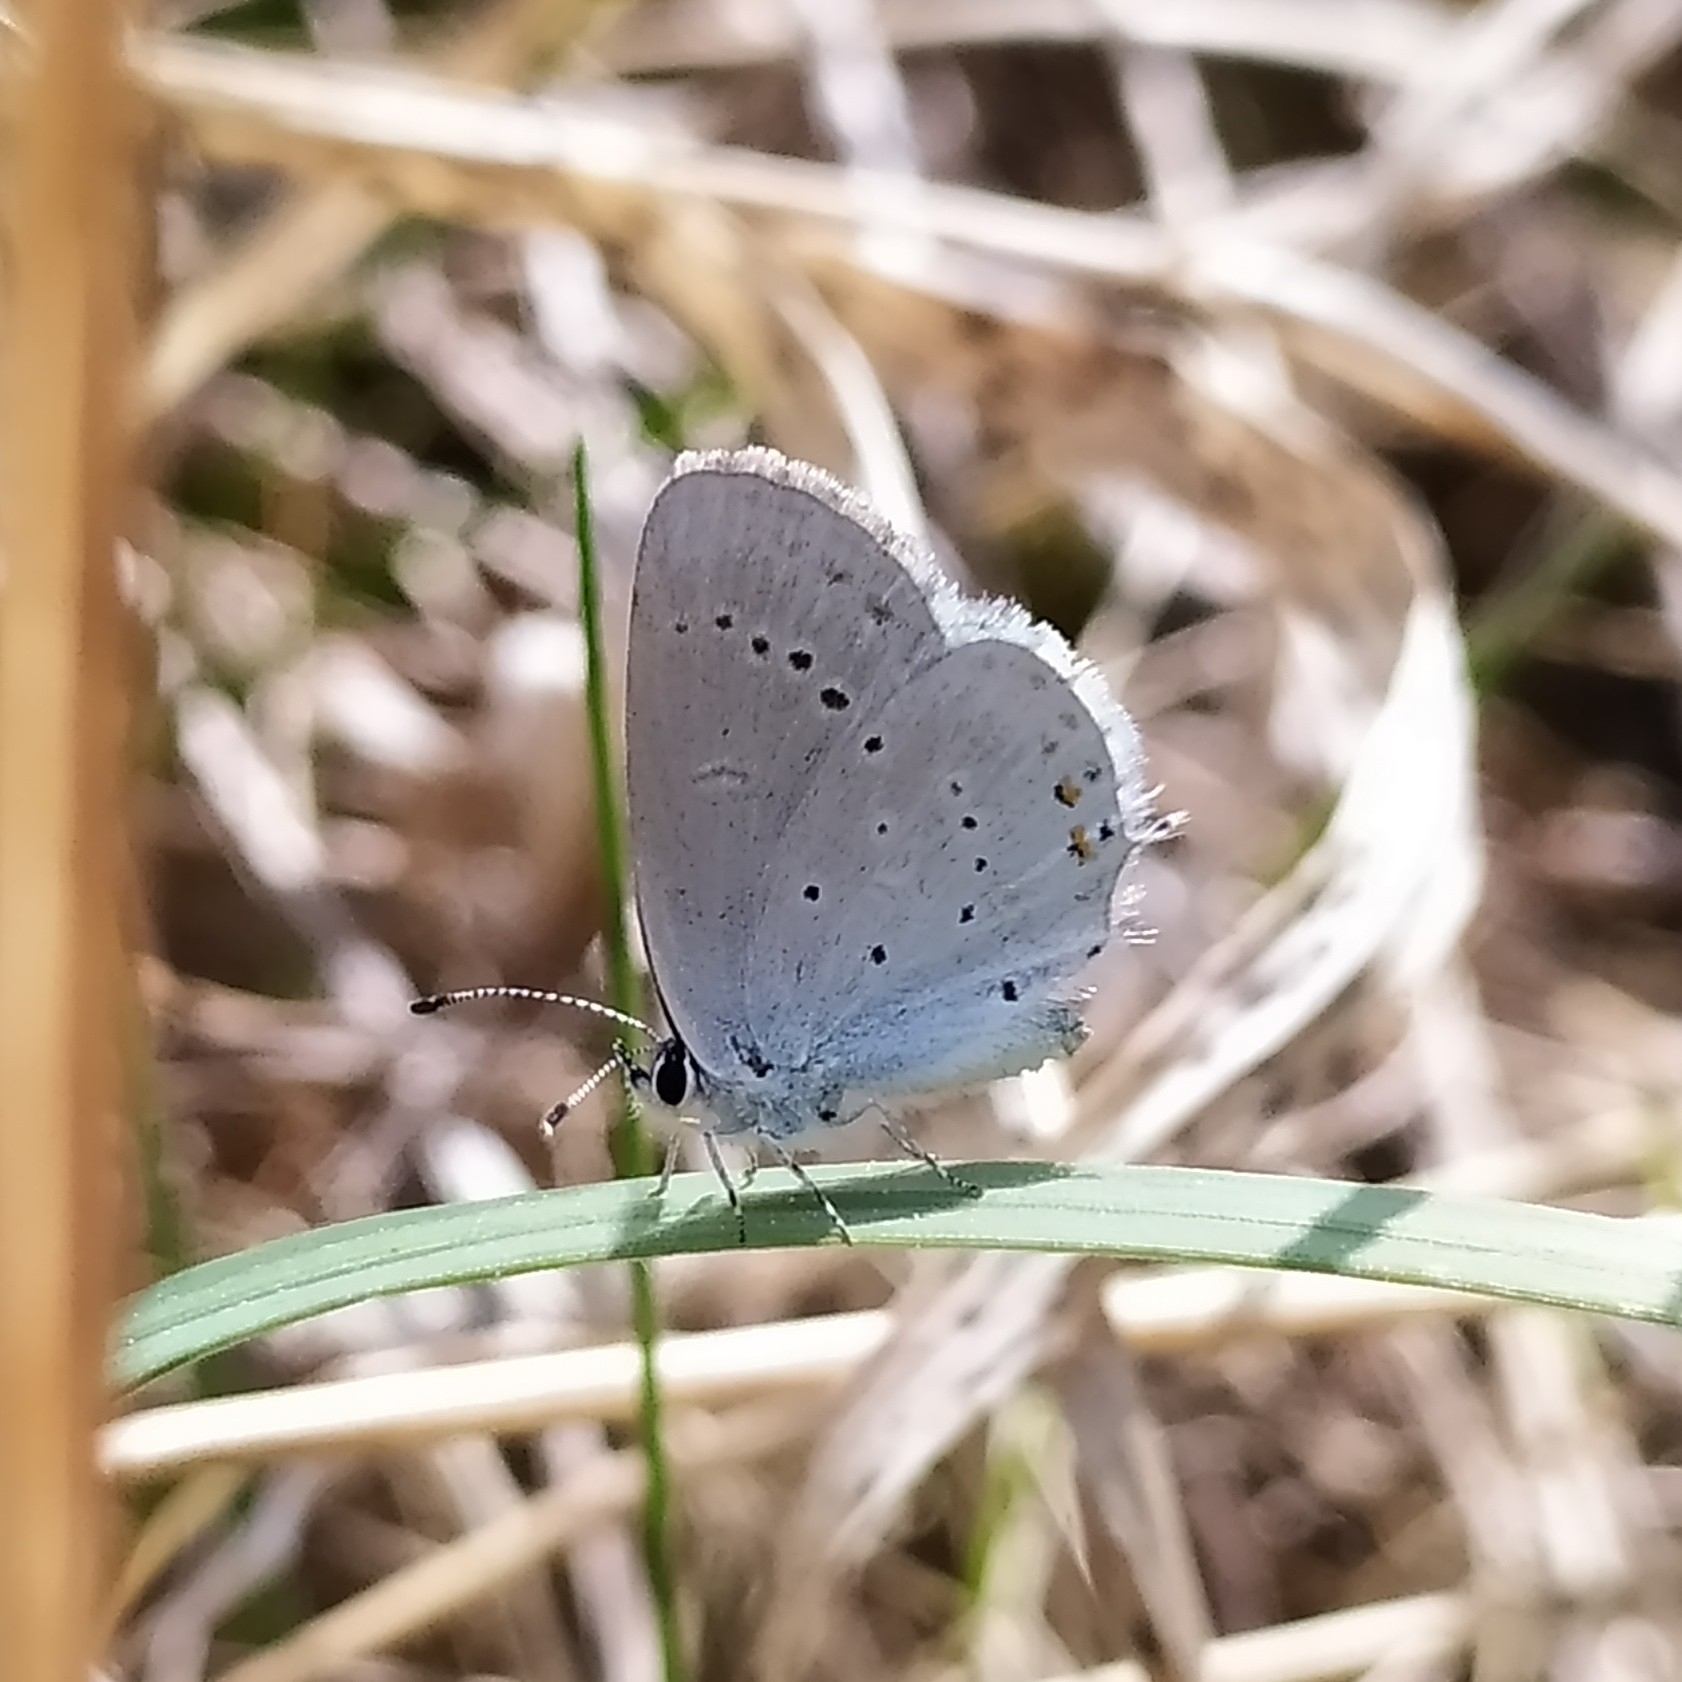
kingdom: Animalia
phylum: Arthropoda
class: Insecta
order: Lepidoptera
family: Lycaenidae
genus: Elkalyce
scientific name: Elkalyce argiades
